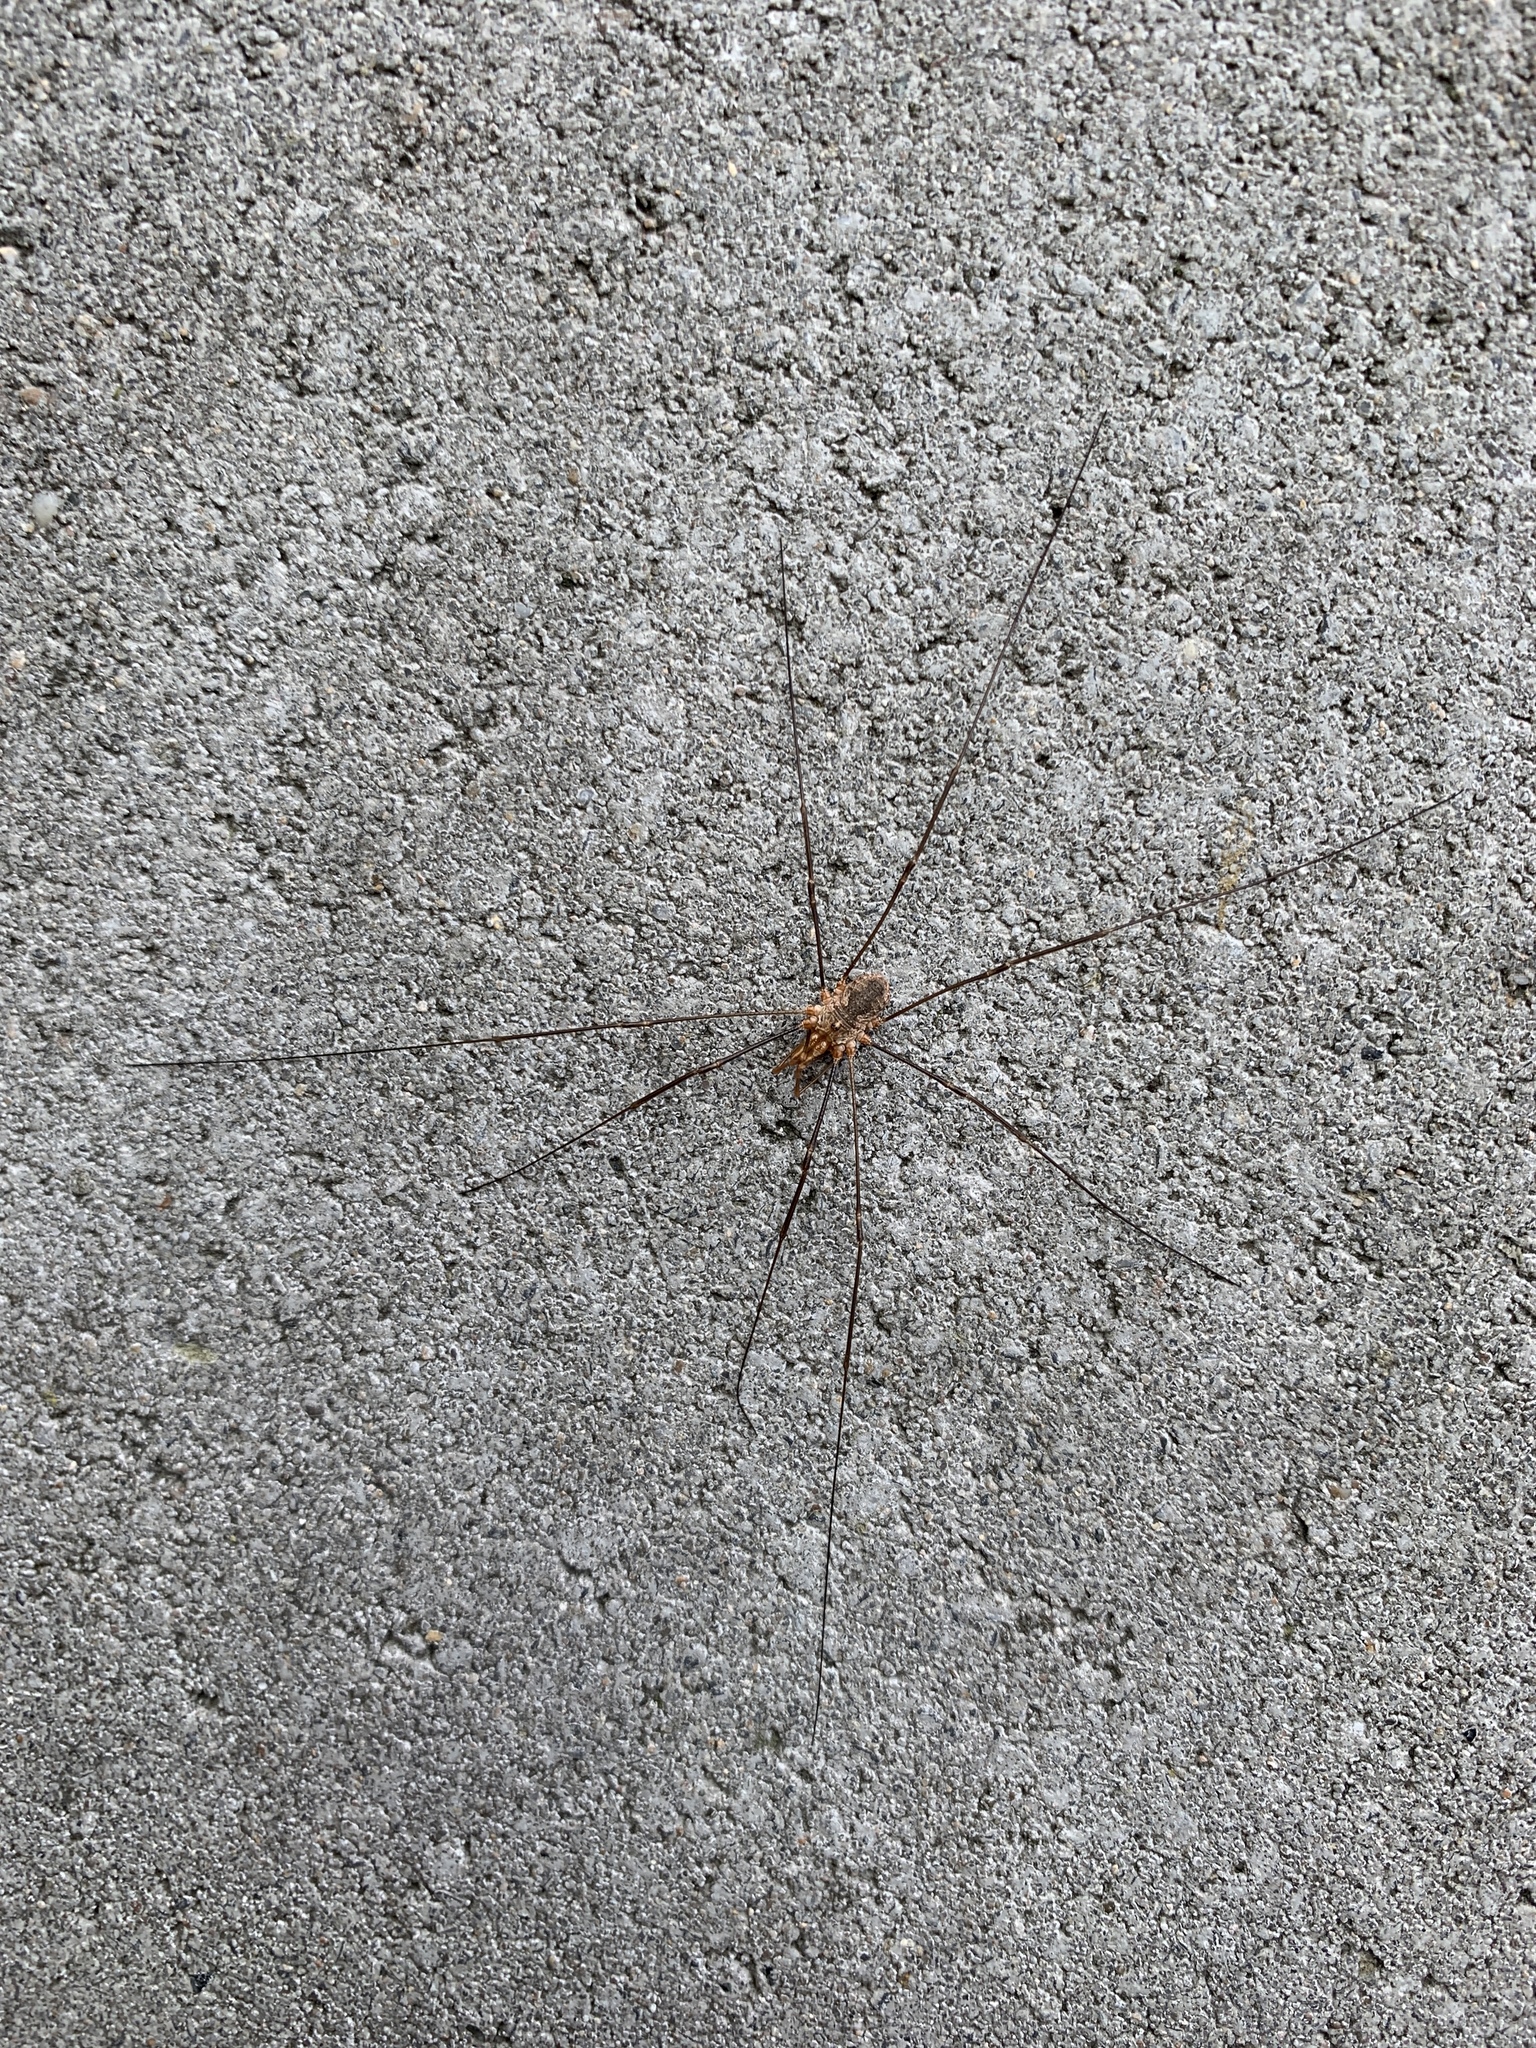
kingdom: Animalia
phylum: Arthropoda
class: Arachnida
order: Opiliones
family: Phalangiidae
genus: Phalangium
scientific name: Phalangium opilio
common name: Daddy longleg
